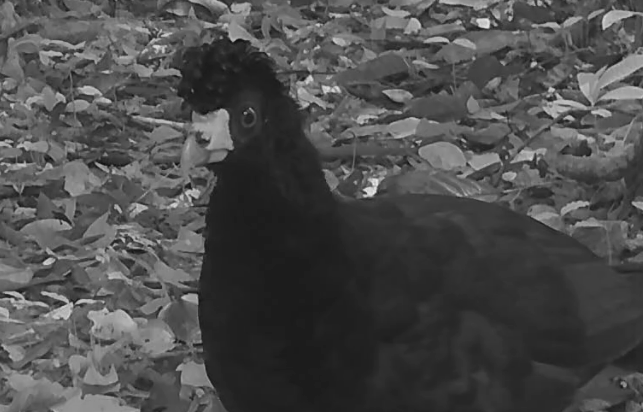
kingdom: Animalia
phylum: Chordata
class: Aves
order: Galliformes
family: Cracidae
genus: Crax
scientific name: Crax alector
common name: Black curassow
